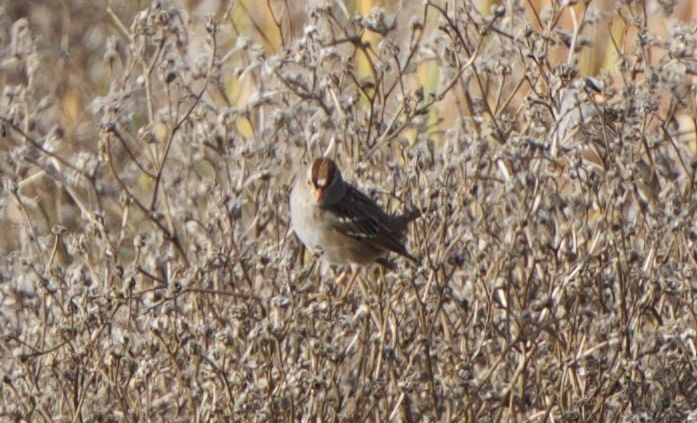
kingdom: Animalia
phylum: Chordata
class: Aves
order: Passeriformes
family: Passerellidae
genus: Zonotrichia
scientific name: Zonotrichia leucophrys
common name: White-crowned sparrow
